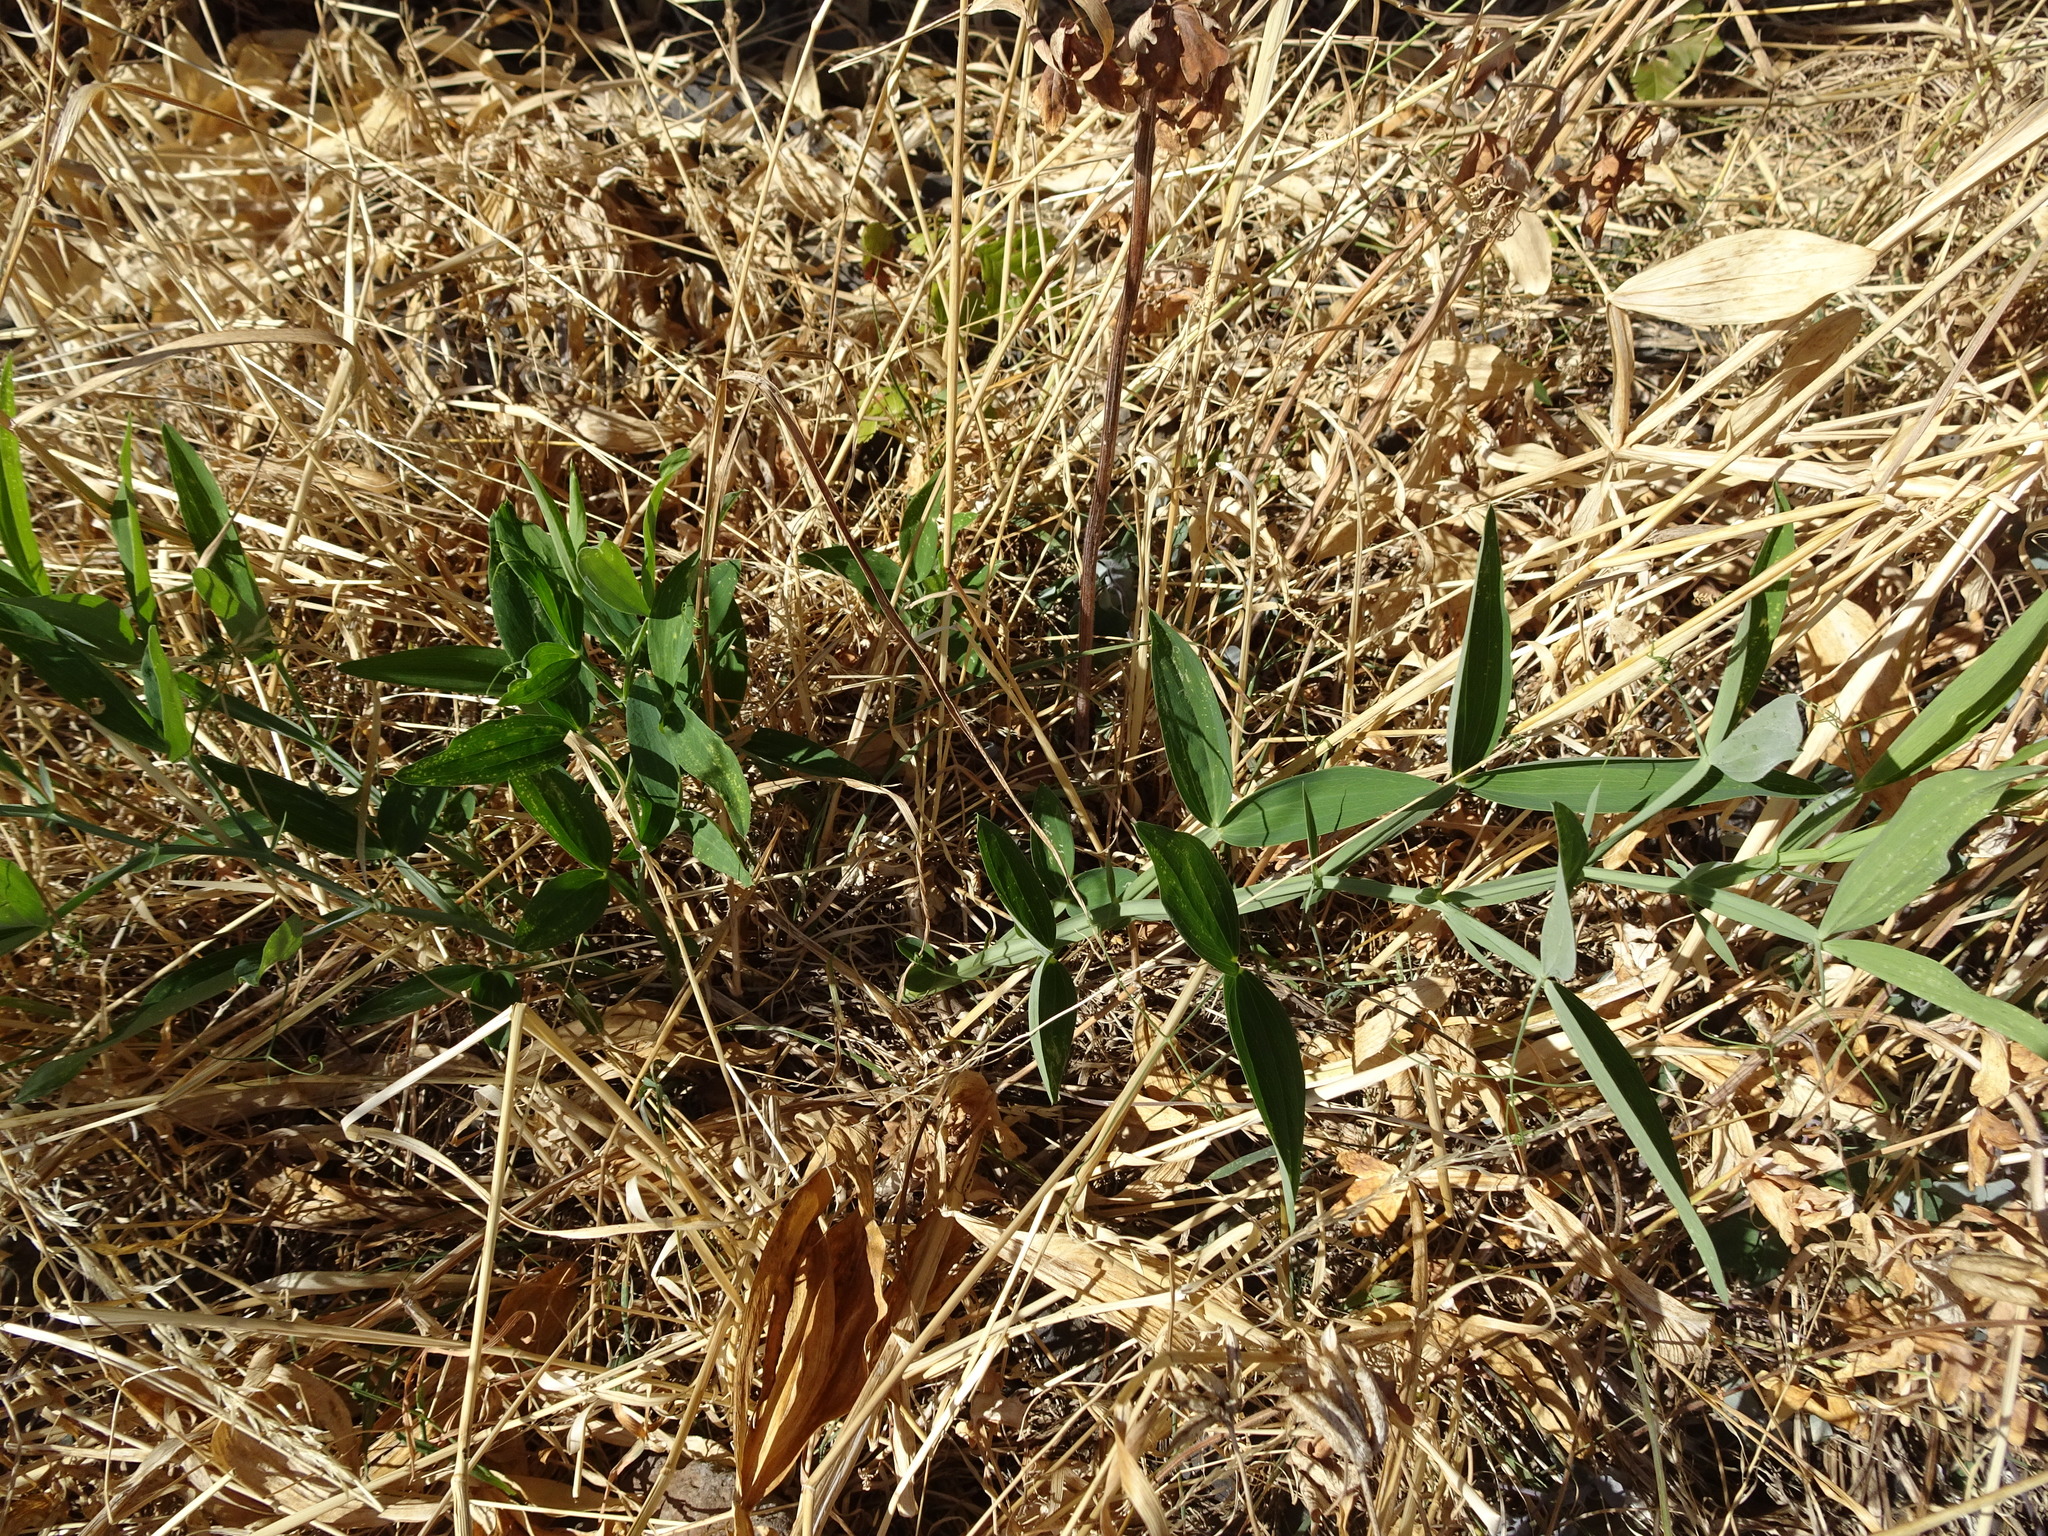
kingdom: Plantae
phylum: Tracheophyta
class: Magnoliopsida
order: Fabales
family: Fabaceae
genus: Lathyrus
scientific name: Lathyrus latifolius
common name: Perennial pea
